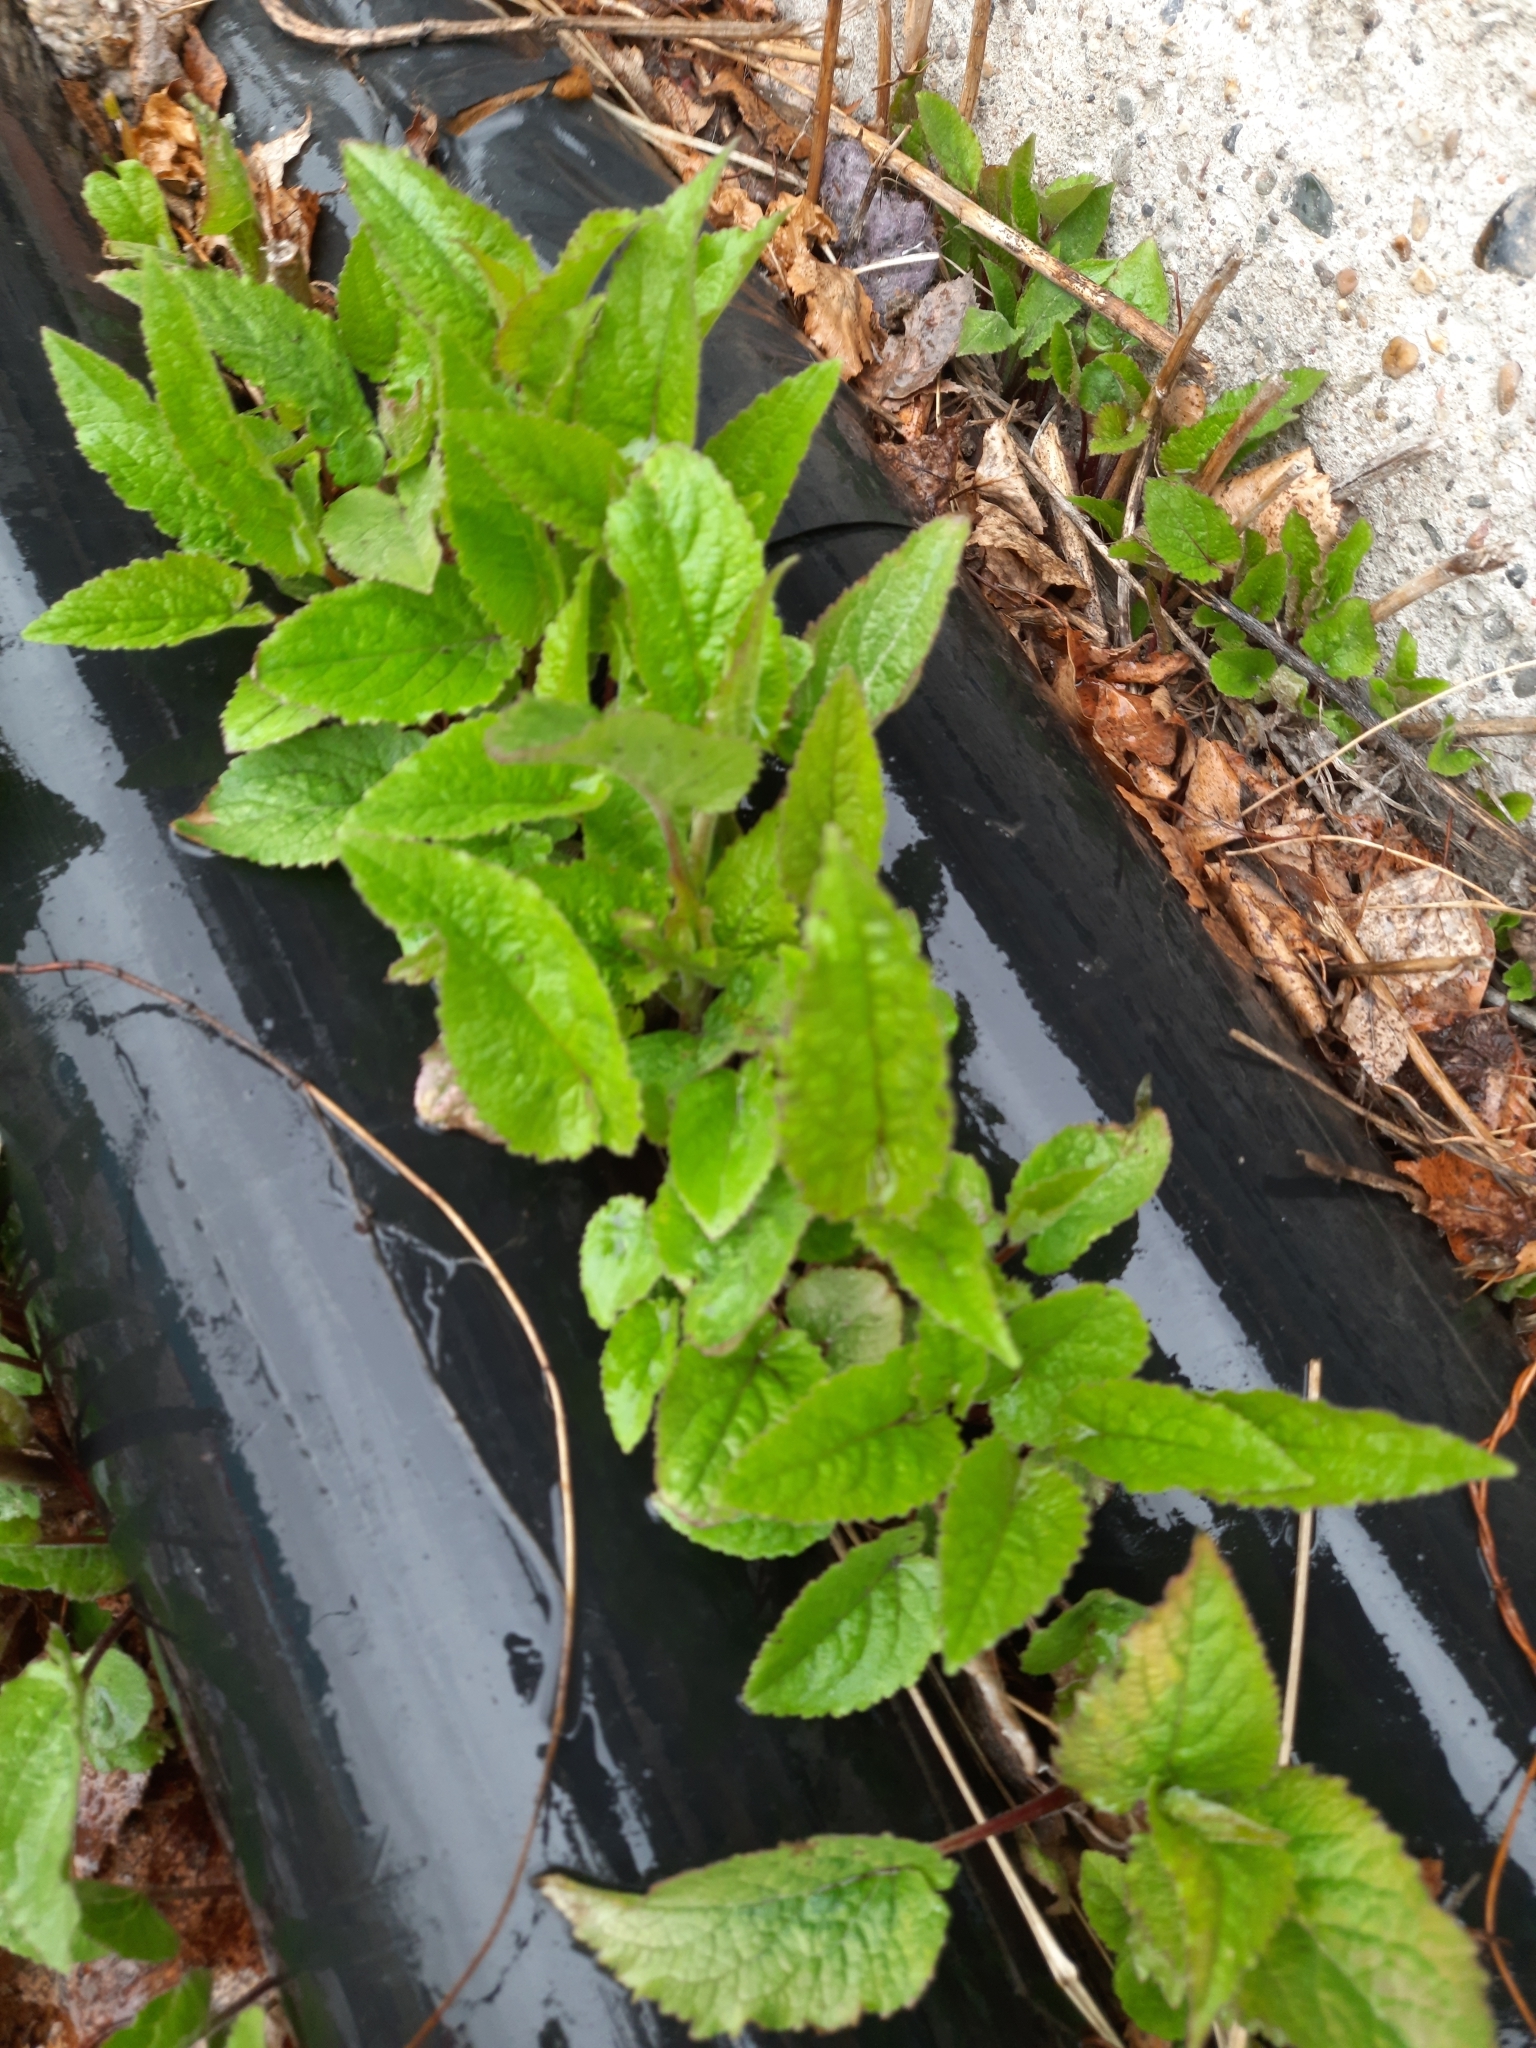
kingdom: Plantae
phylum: Tracheophyta
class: Magnoliopsida
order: Asterales
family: Campanulaceae
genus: Campanula
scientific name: Campanula rapunculoides
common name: Creeping bellflower
